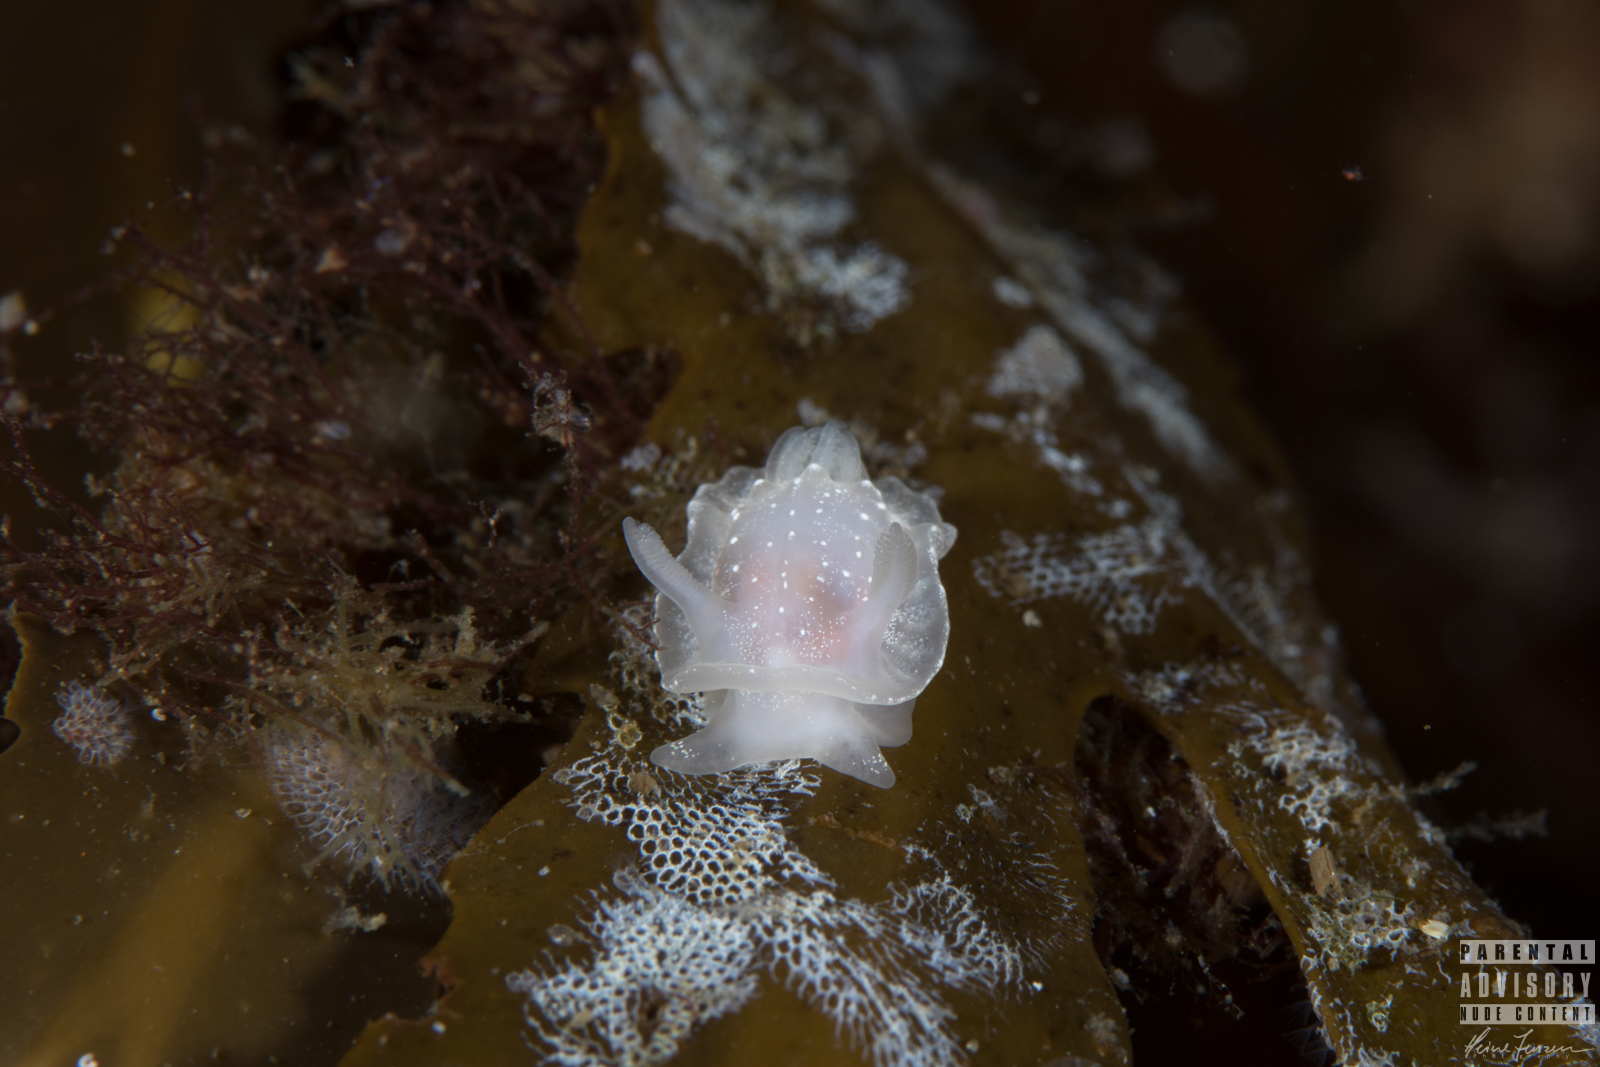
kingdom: Animalia
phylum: Mollusca
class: Gastropoda
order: Nudibranchia
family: Goniodorididae
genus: Okenia
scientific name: Okenia
